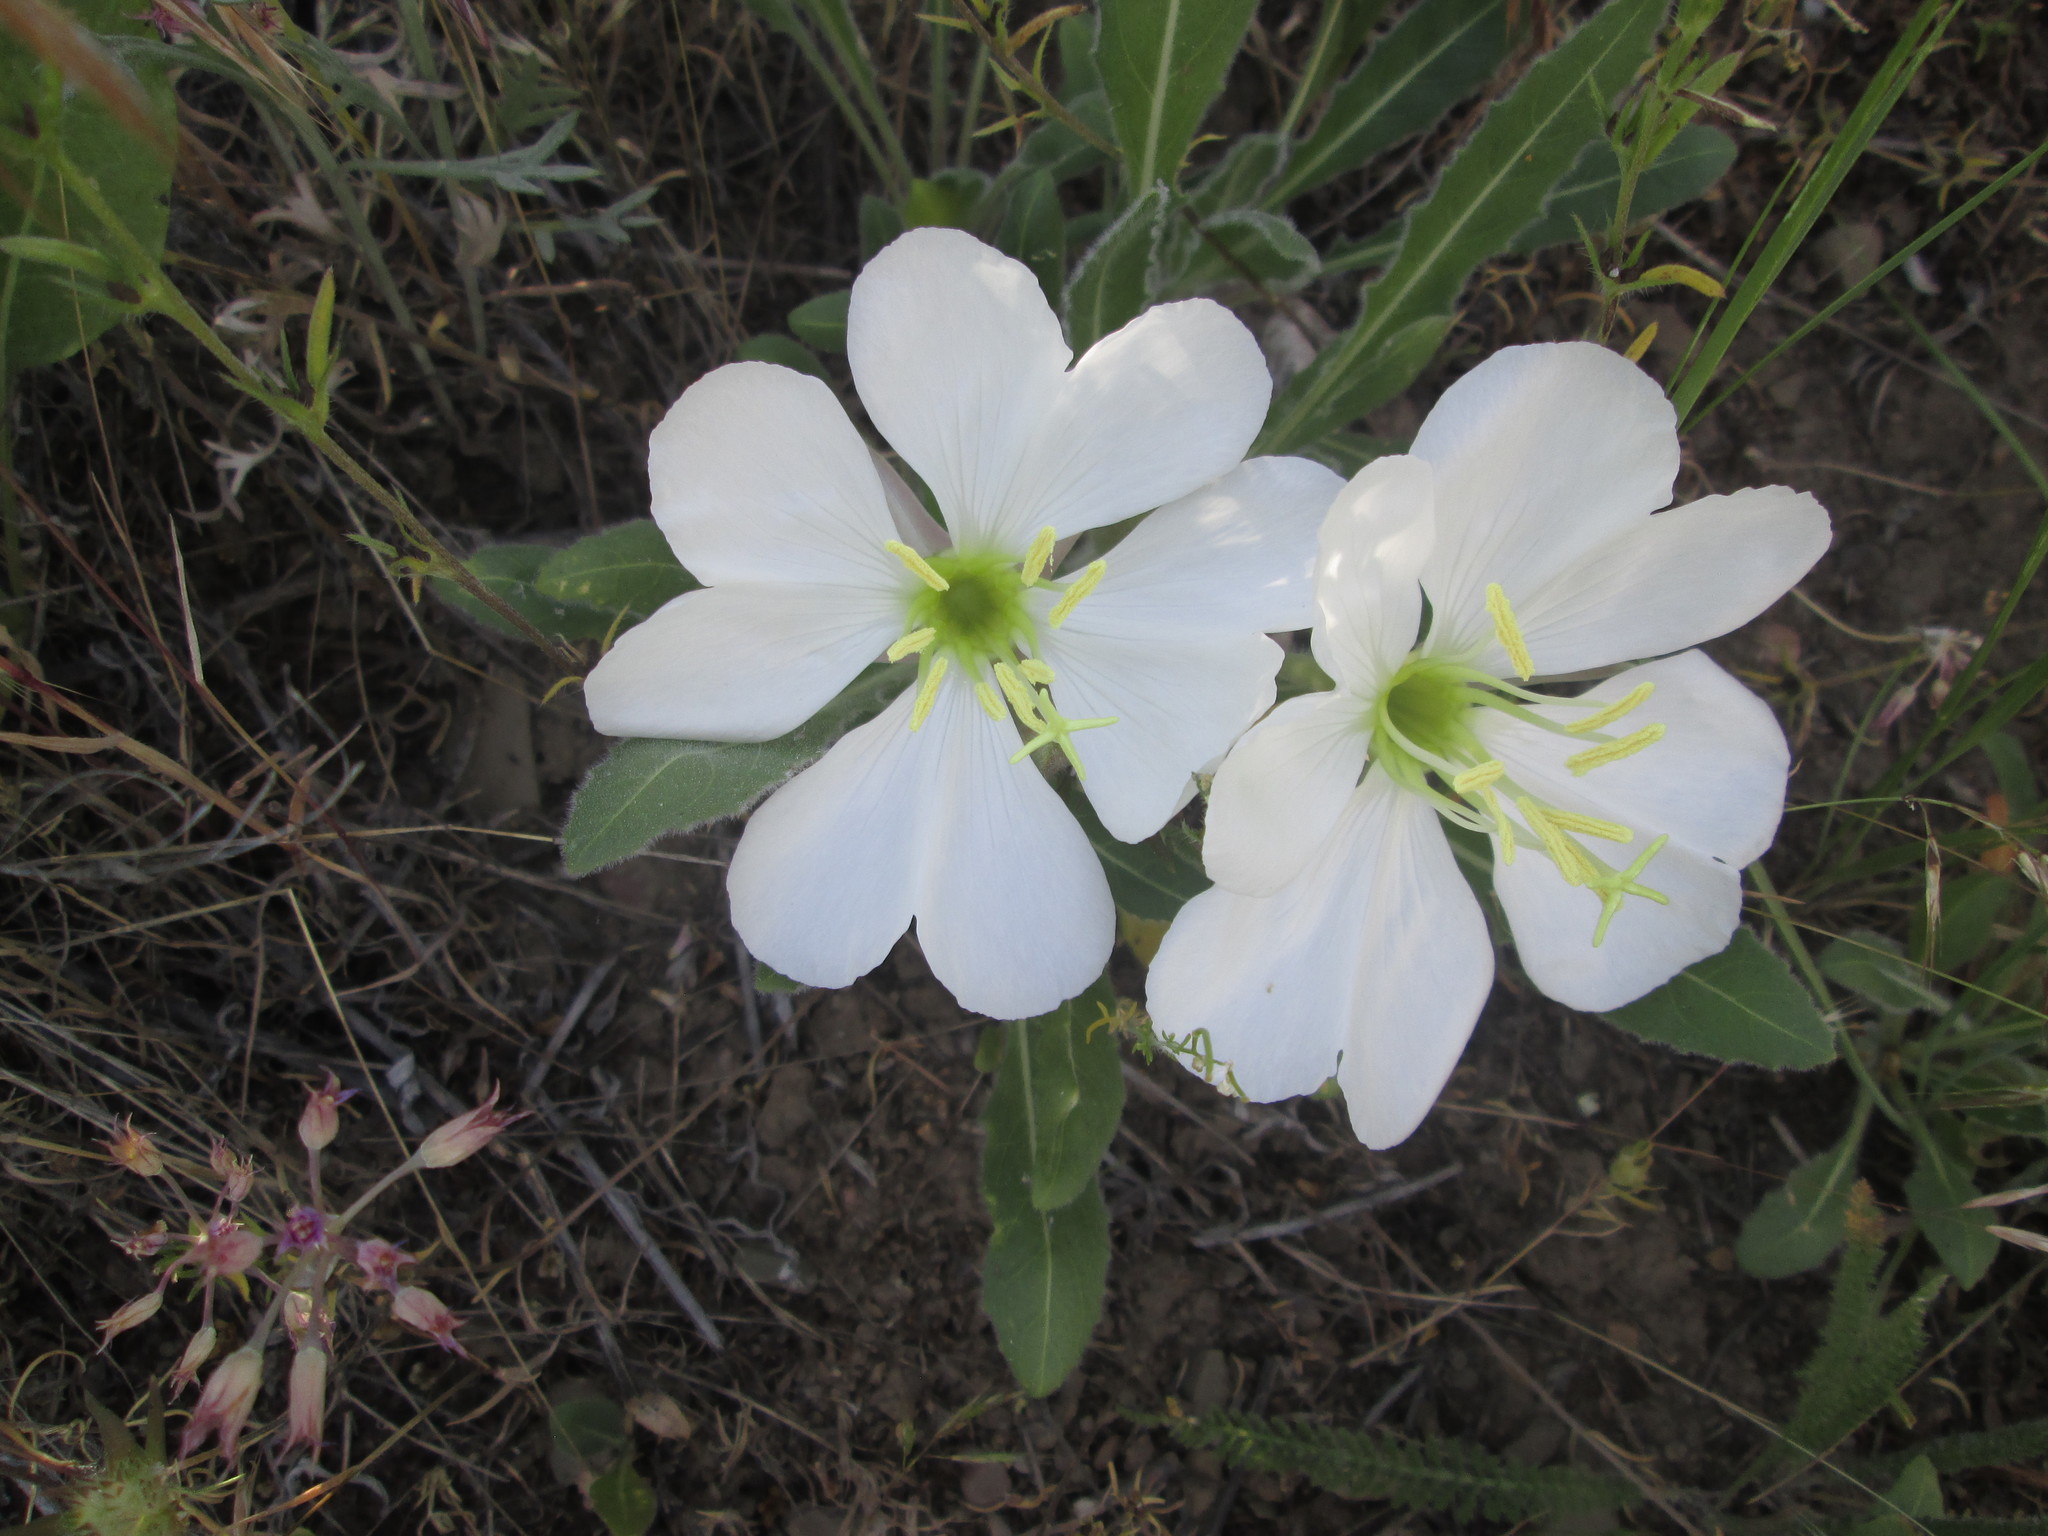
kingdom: Plantae
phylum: Tracheophyta
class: Magnoliopsida
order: Myrtales
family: Onagraceae
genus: Oenothera
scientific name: Oenothera cespitosa
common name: Tufted evening-primrose
